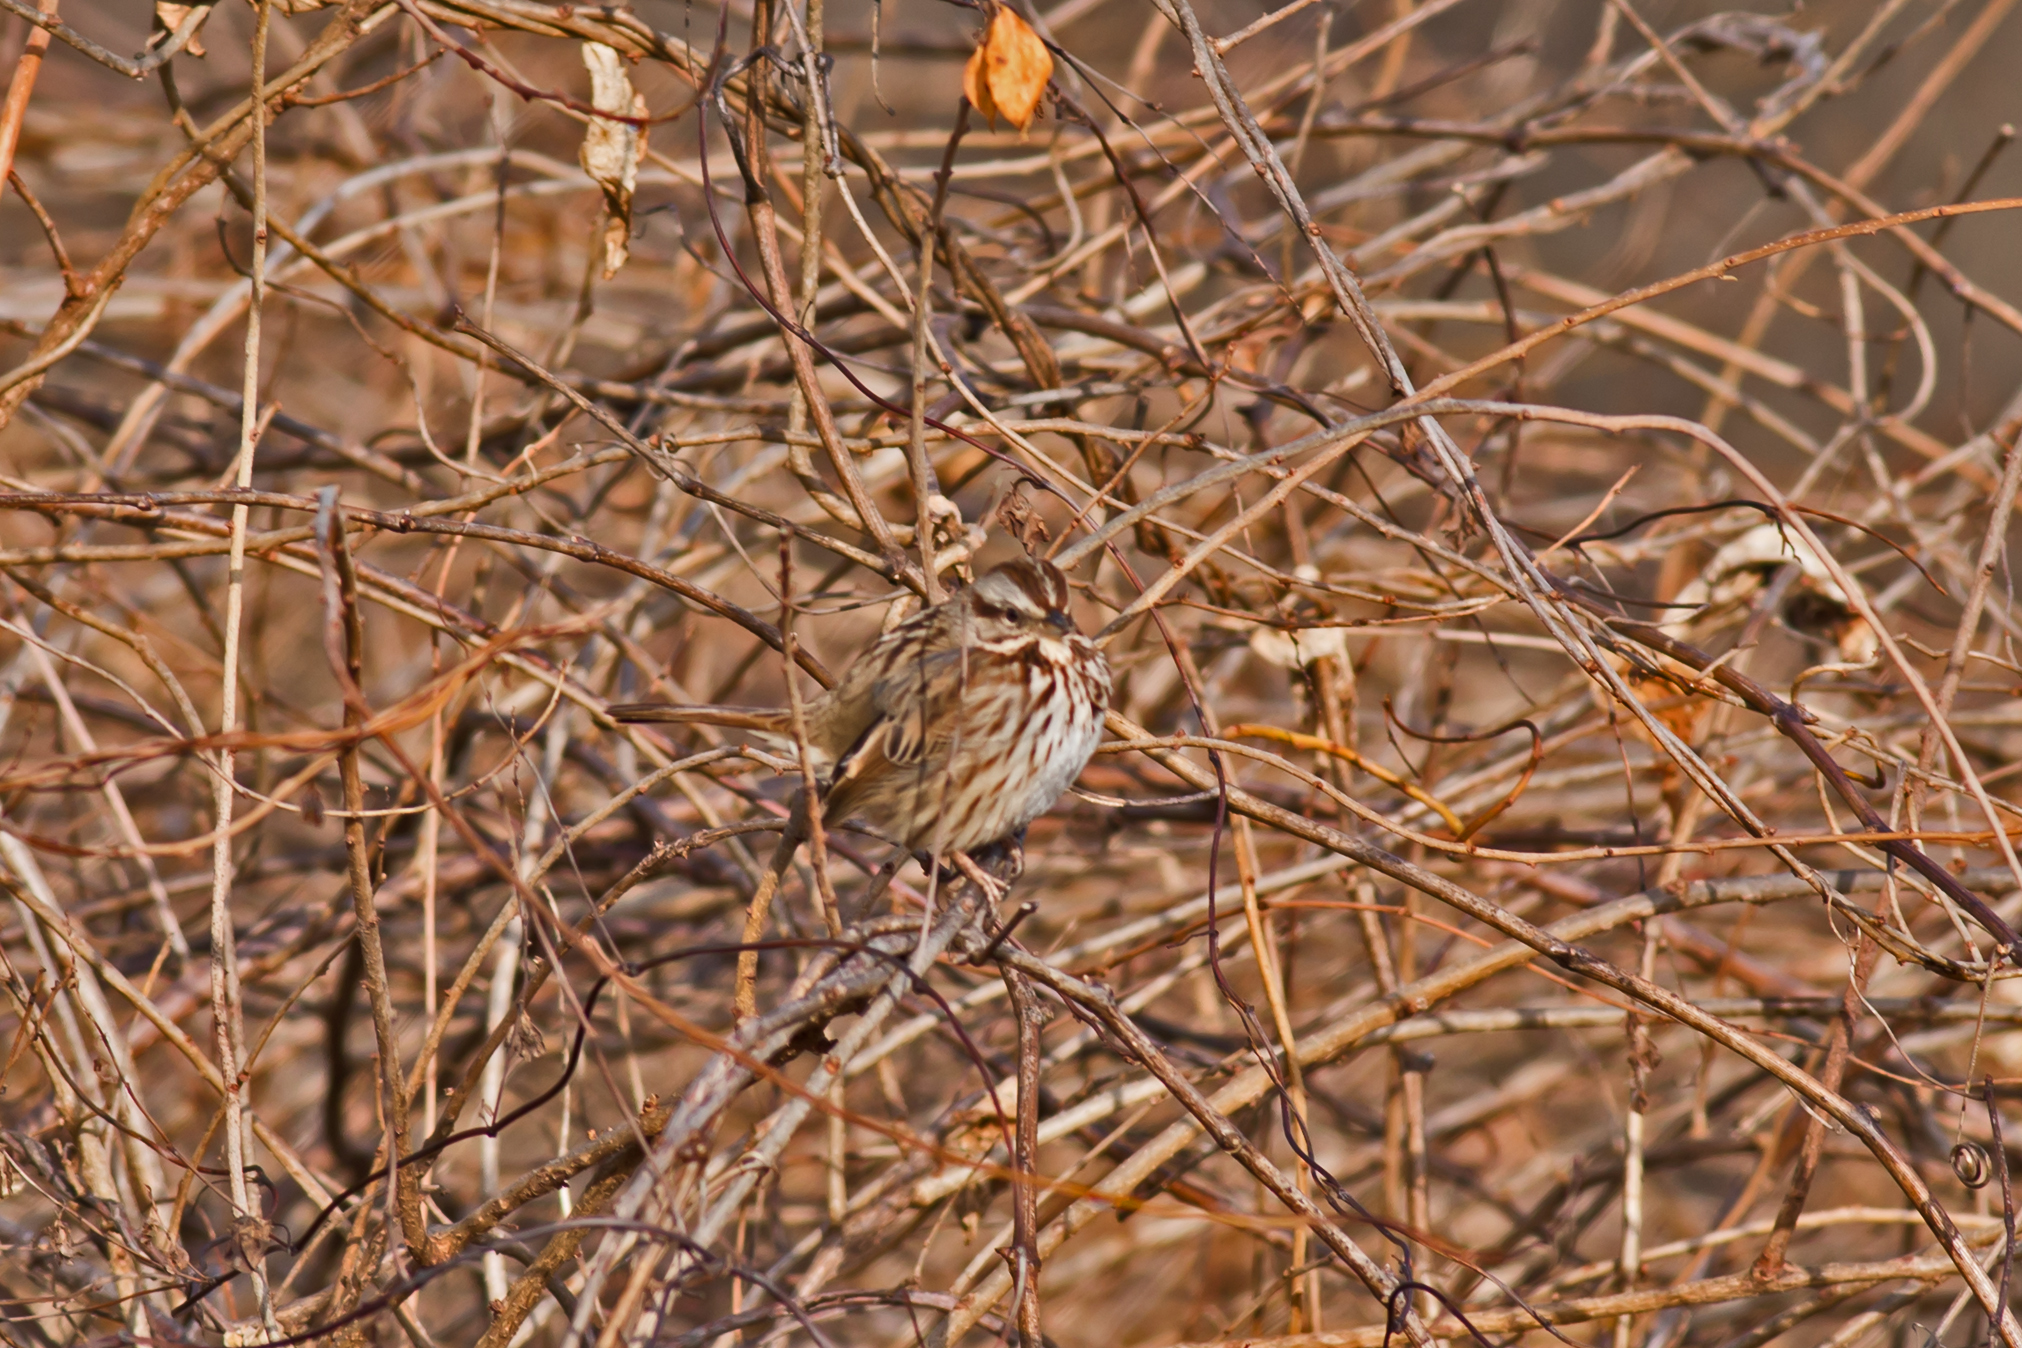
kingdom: Animalia
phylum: Chordata
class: Aves
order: Passeriformes
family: Passerellidae
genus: Melospiza
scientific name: Melospiza melodia
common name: Song sparrow
